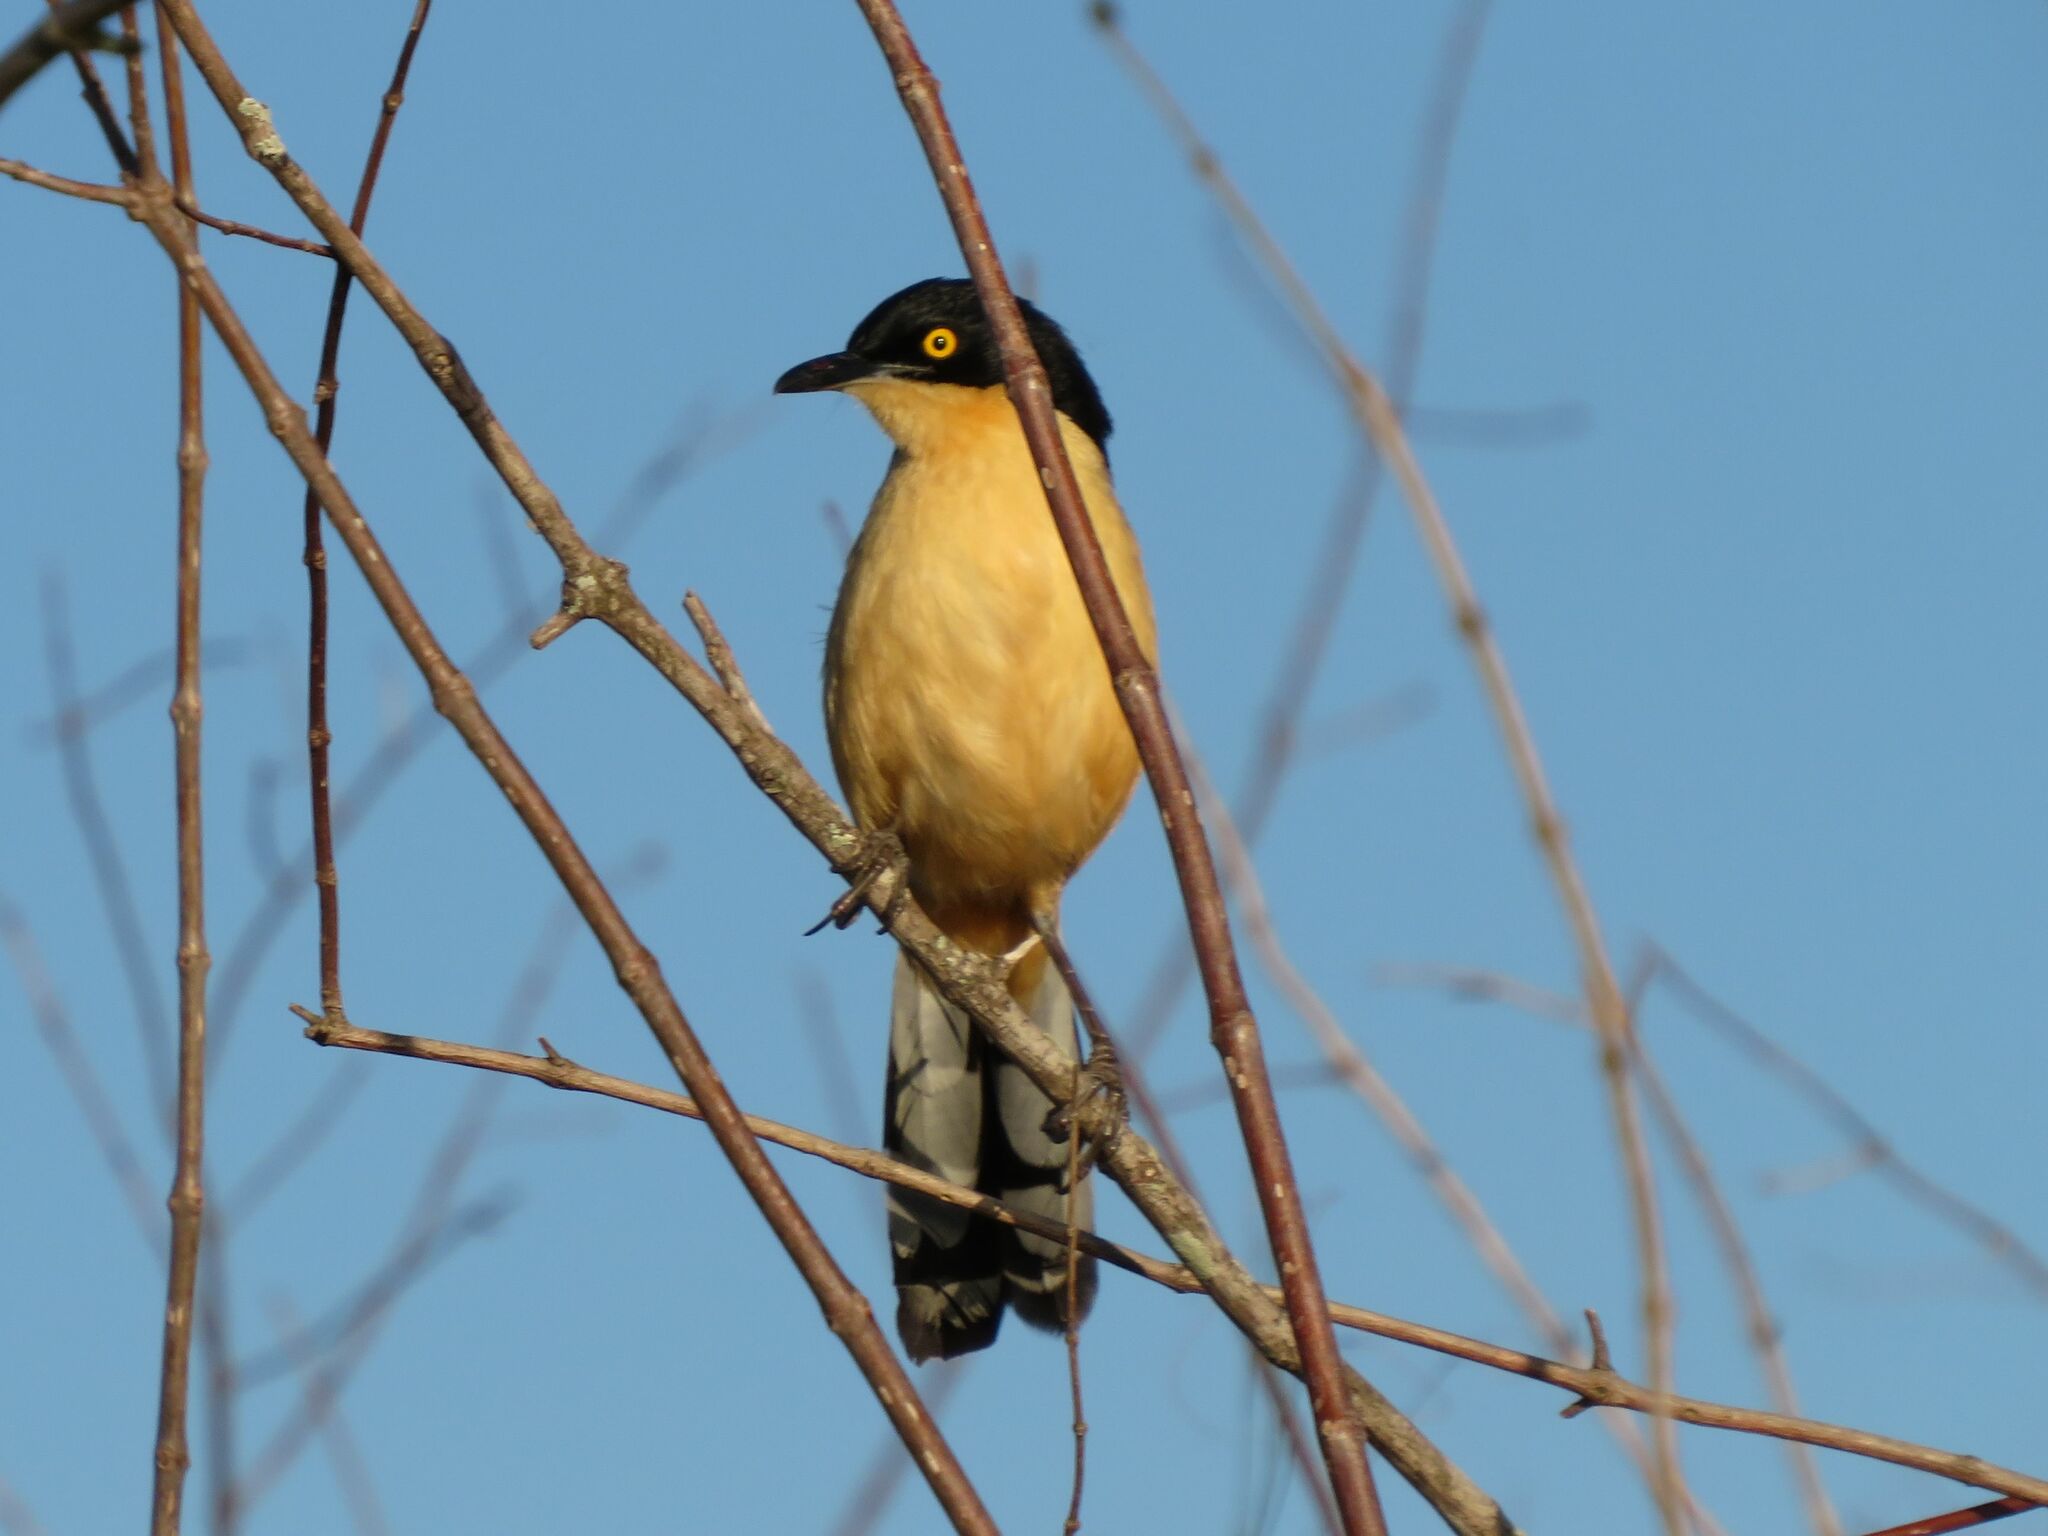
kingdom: Animalia
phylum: Chordata
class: Aves
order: Passeriformes
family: Donacobiidae
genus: Donacobius
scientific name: Donacobius atricapilla
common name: Black-capped donacobius
